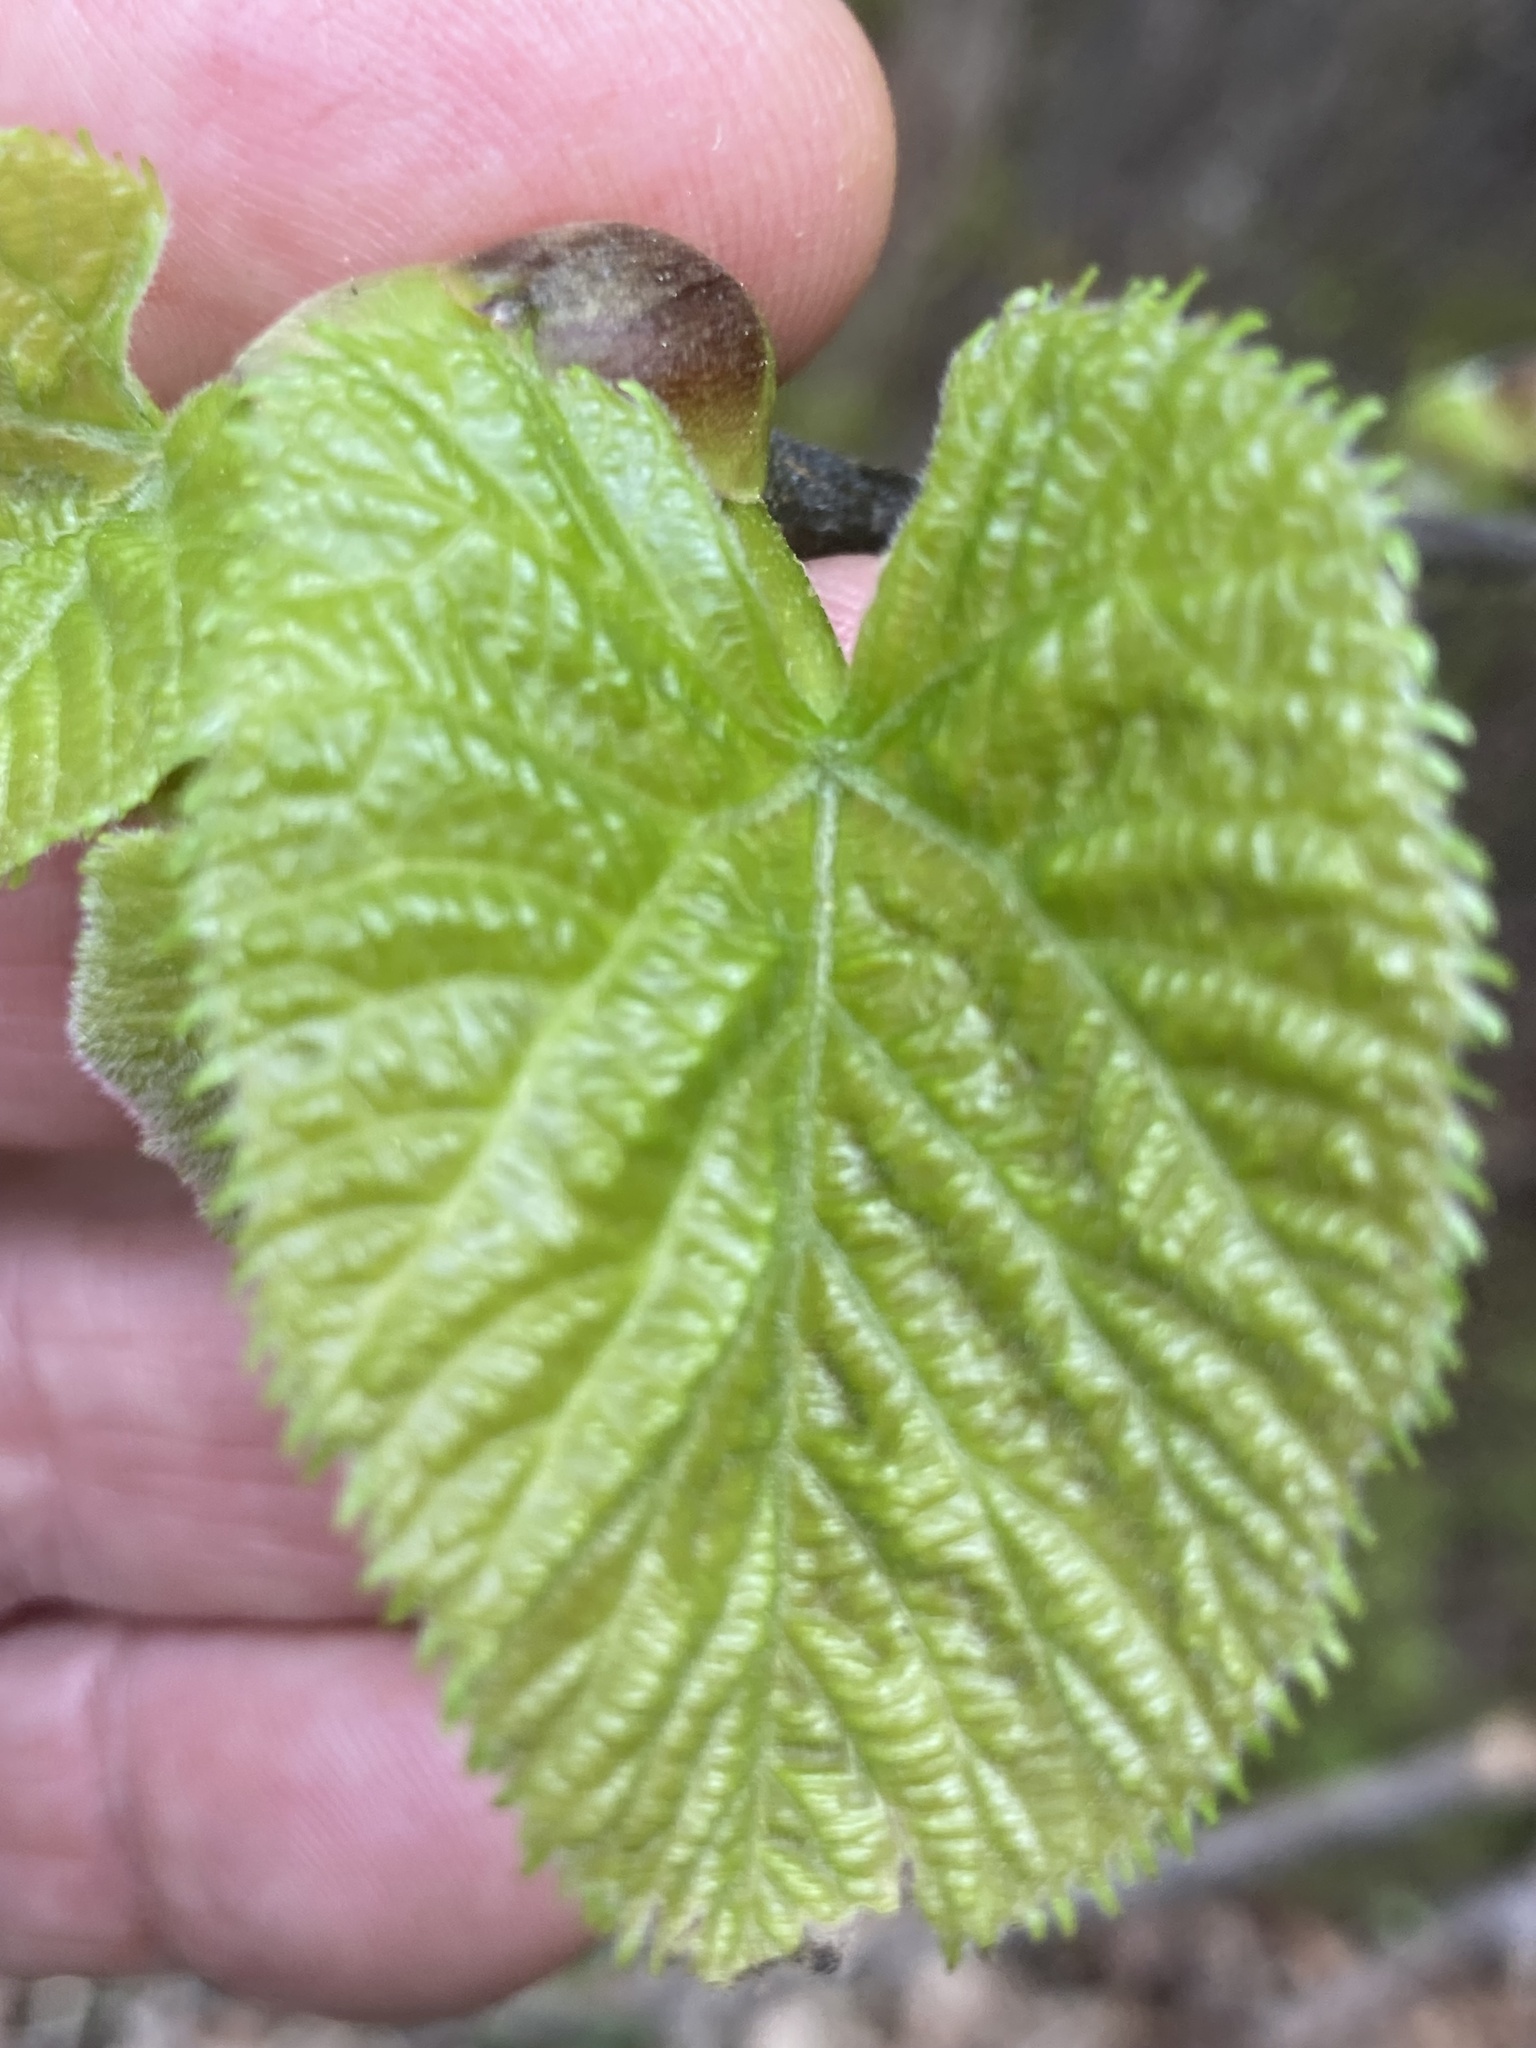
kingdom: Plantae
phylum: Tracheophyta
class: Magnoliopsida
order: Malvales
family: Malvaceae
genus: Tilia
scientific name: Tilia americana
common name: Basswood
